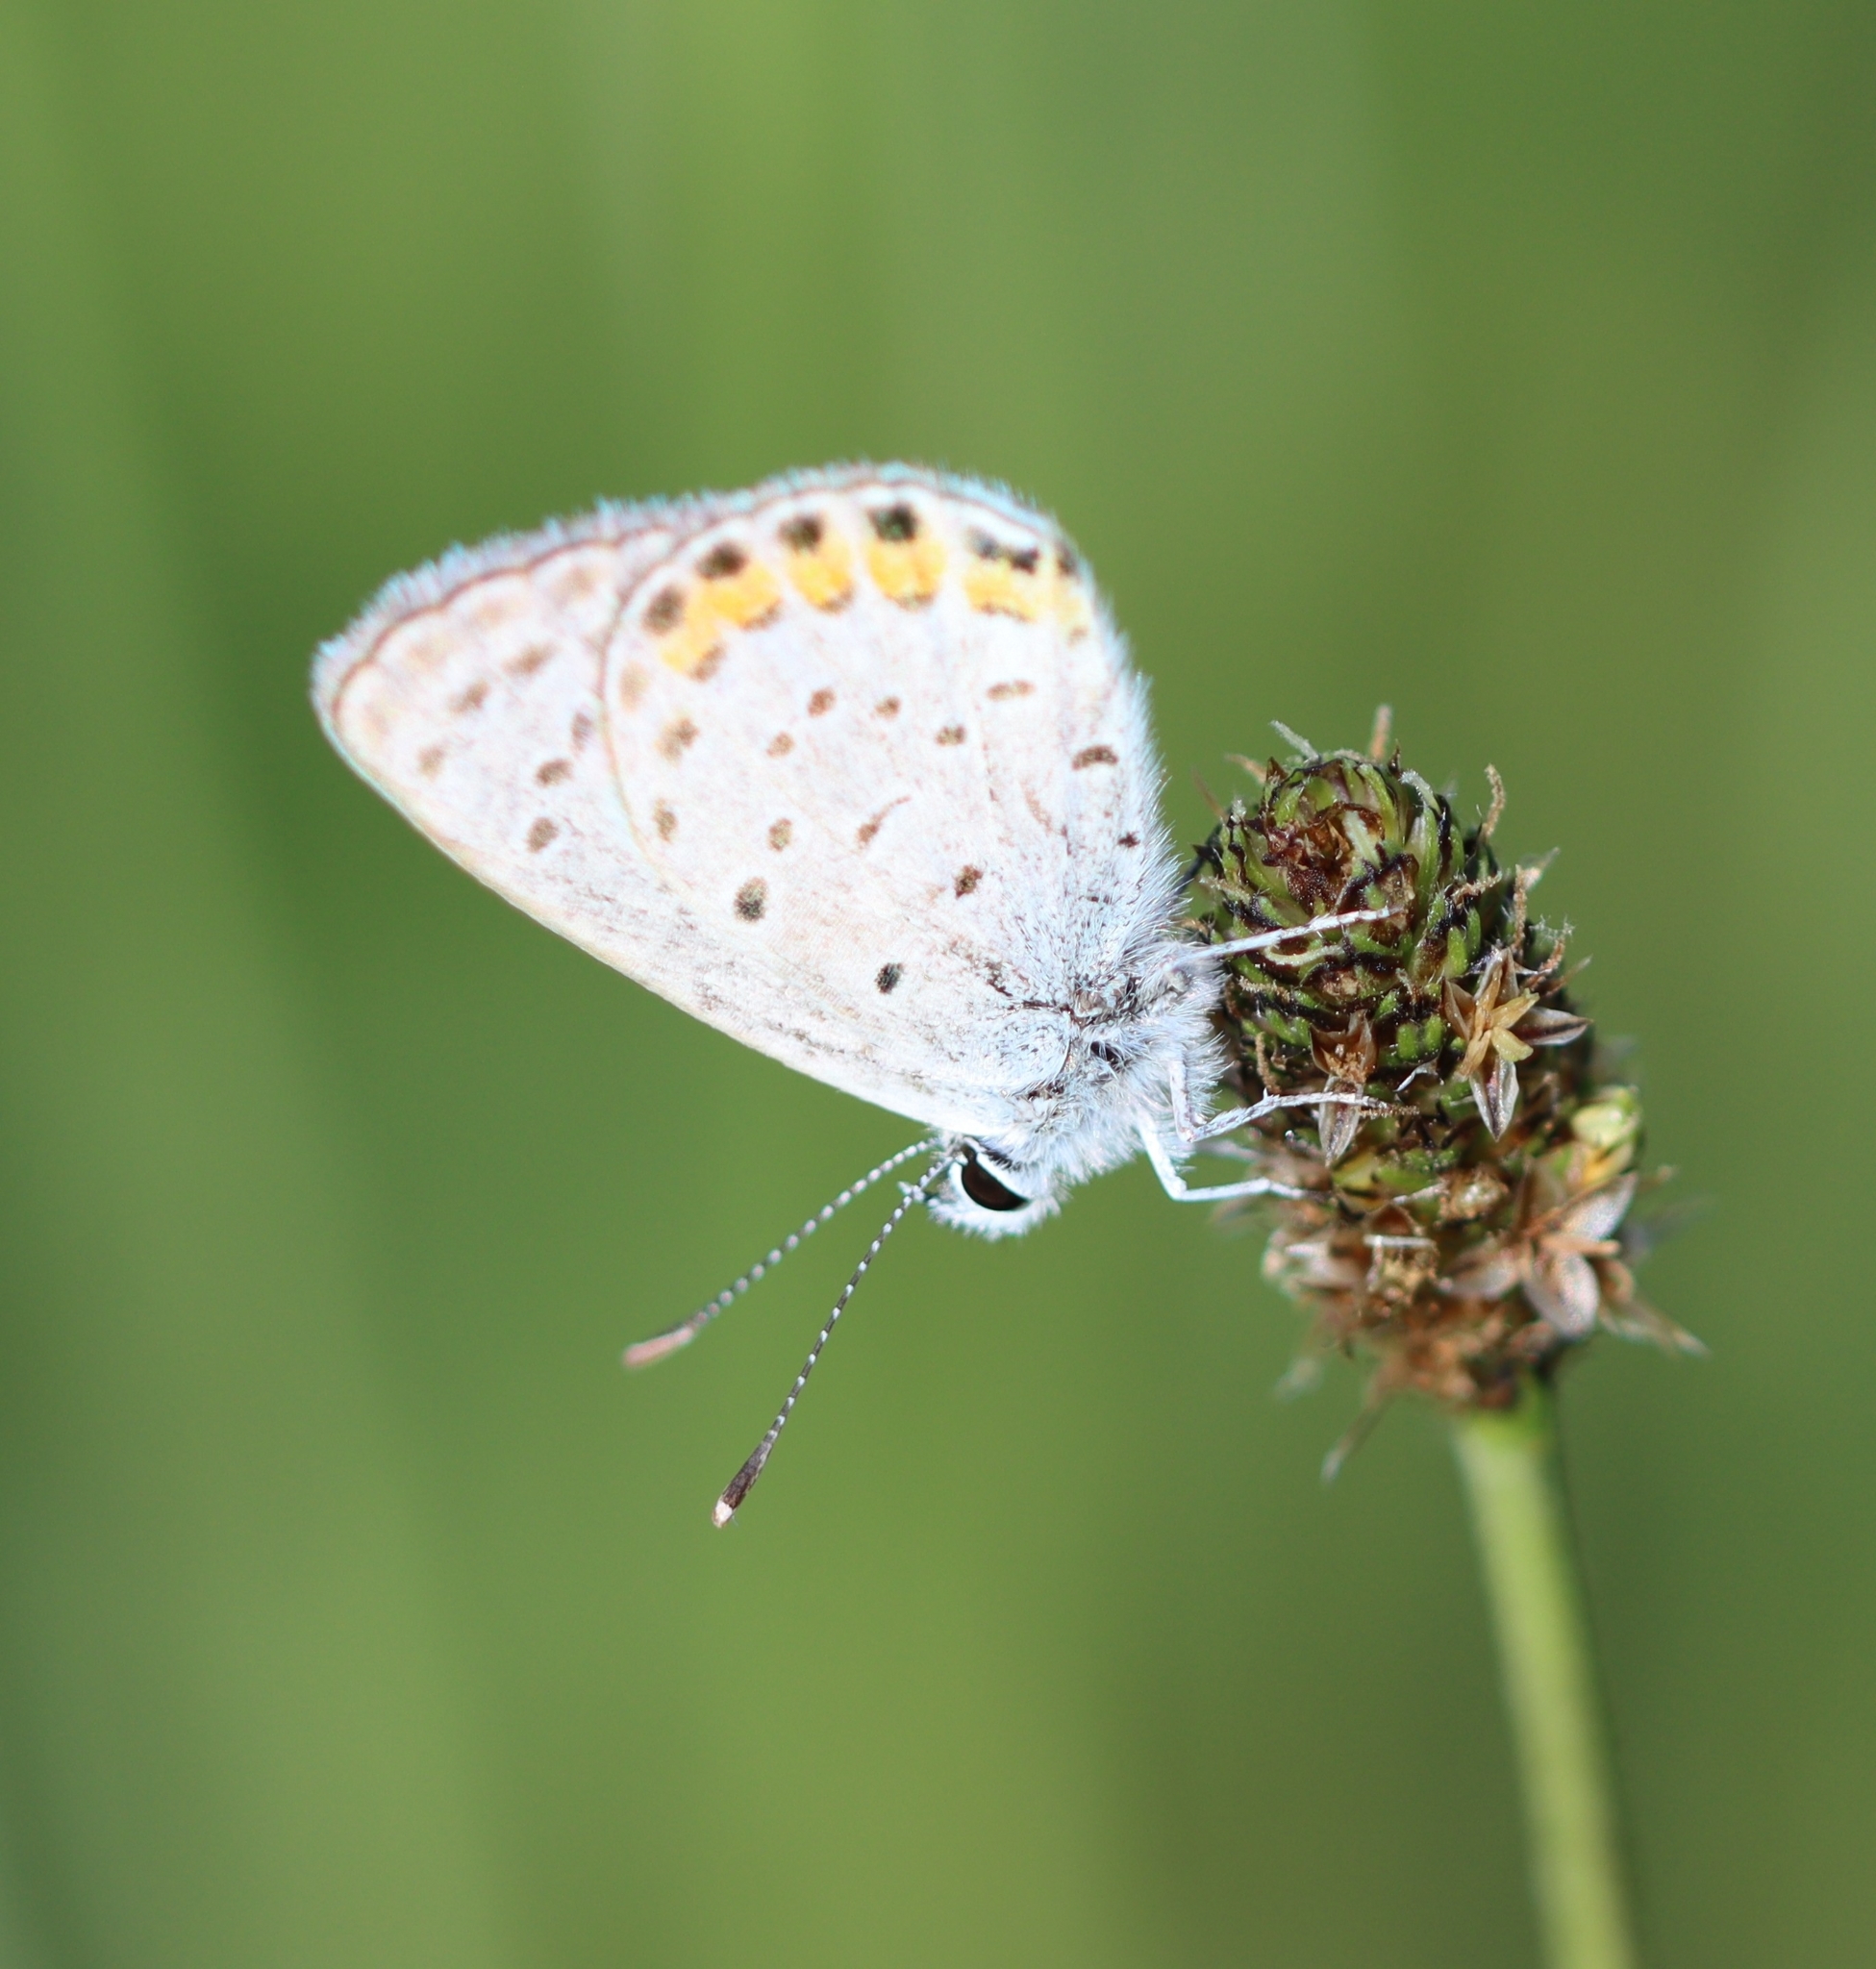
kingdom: Animalia
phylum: Arthropoda
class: Insecta
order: Lepidoptera
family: Lycaenidae
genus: Icaricia
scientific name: Icaricia acmon
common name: Acmon blue
